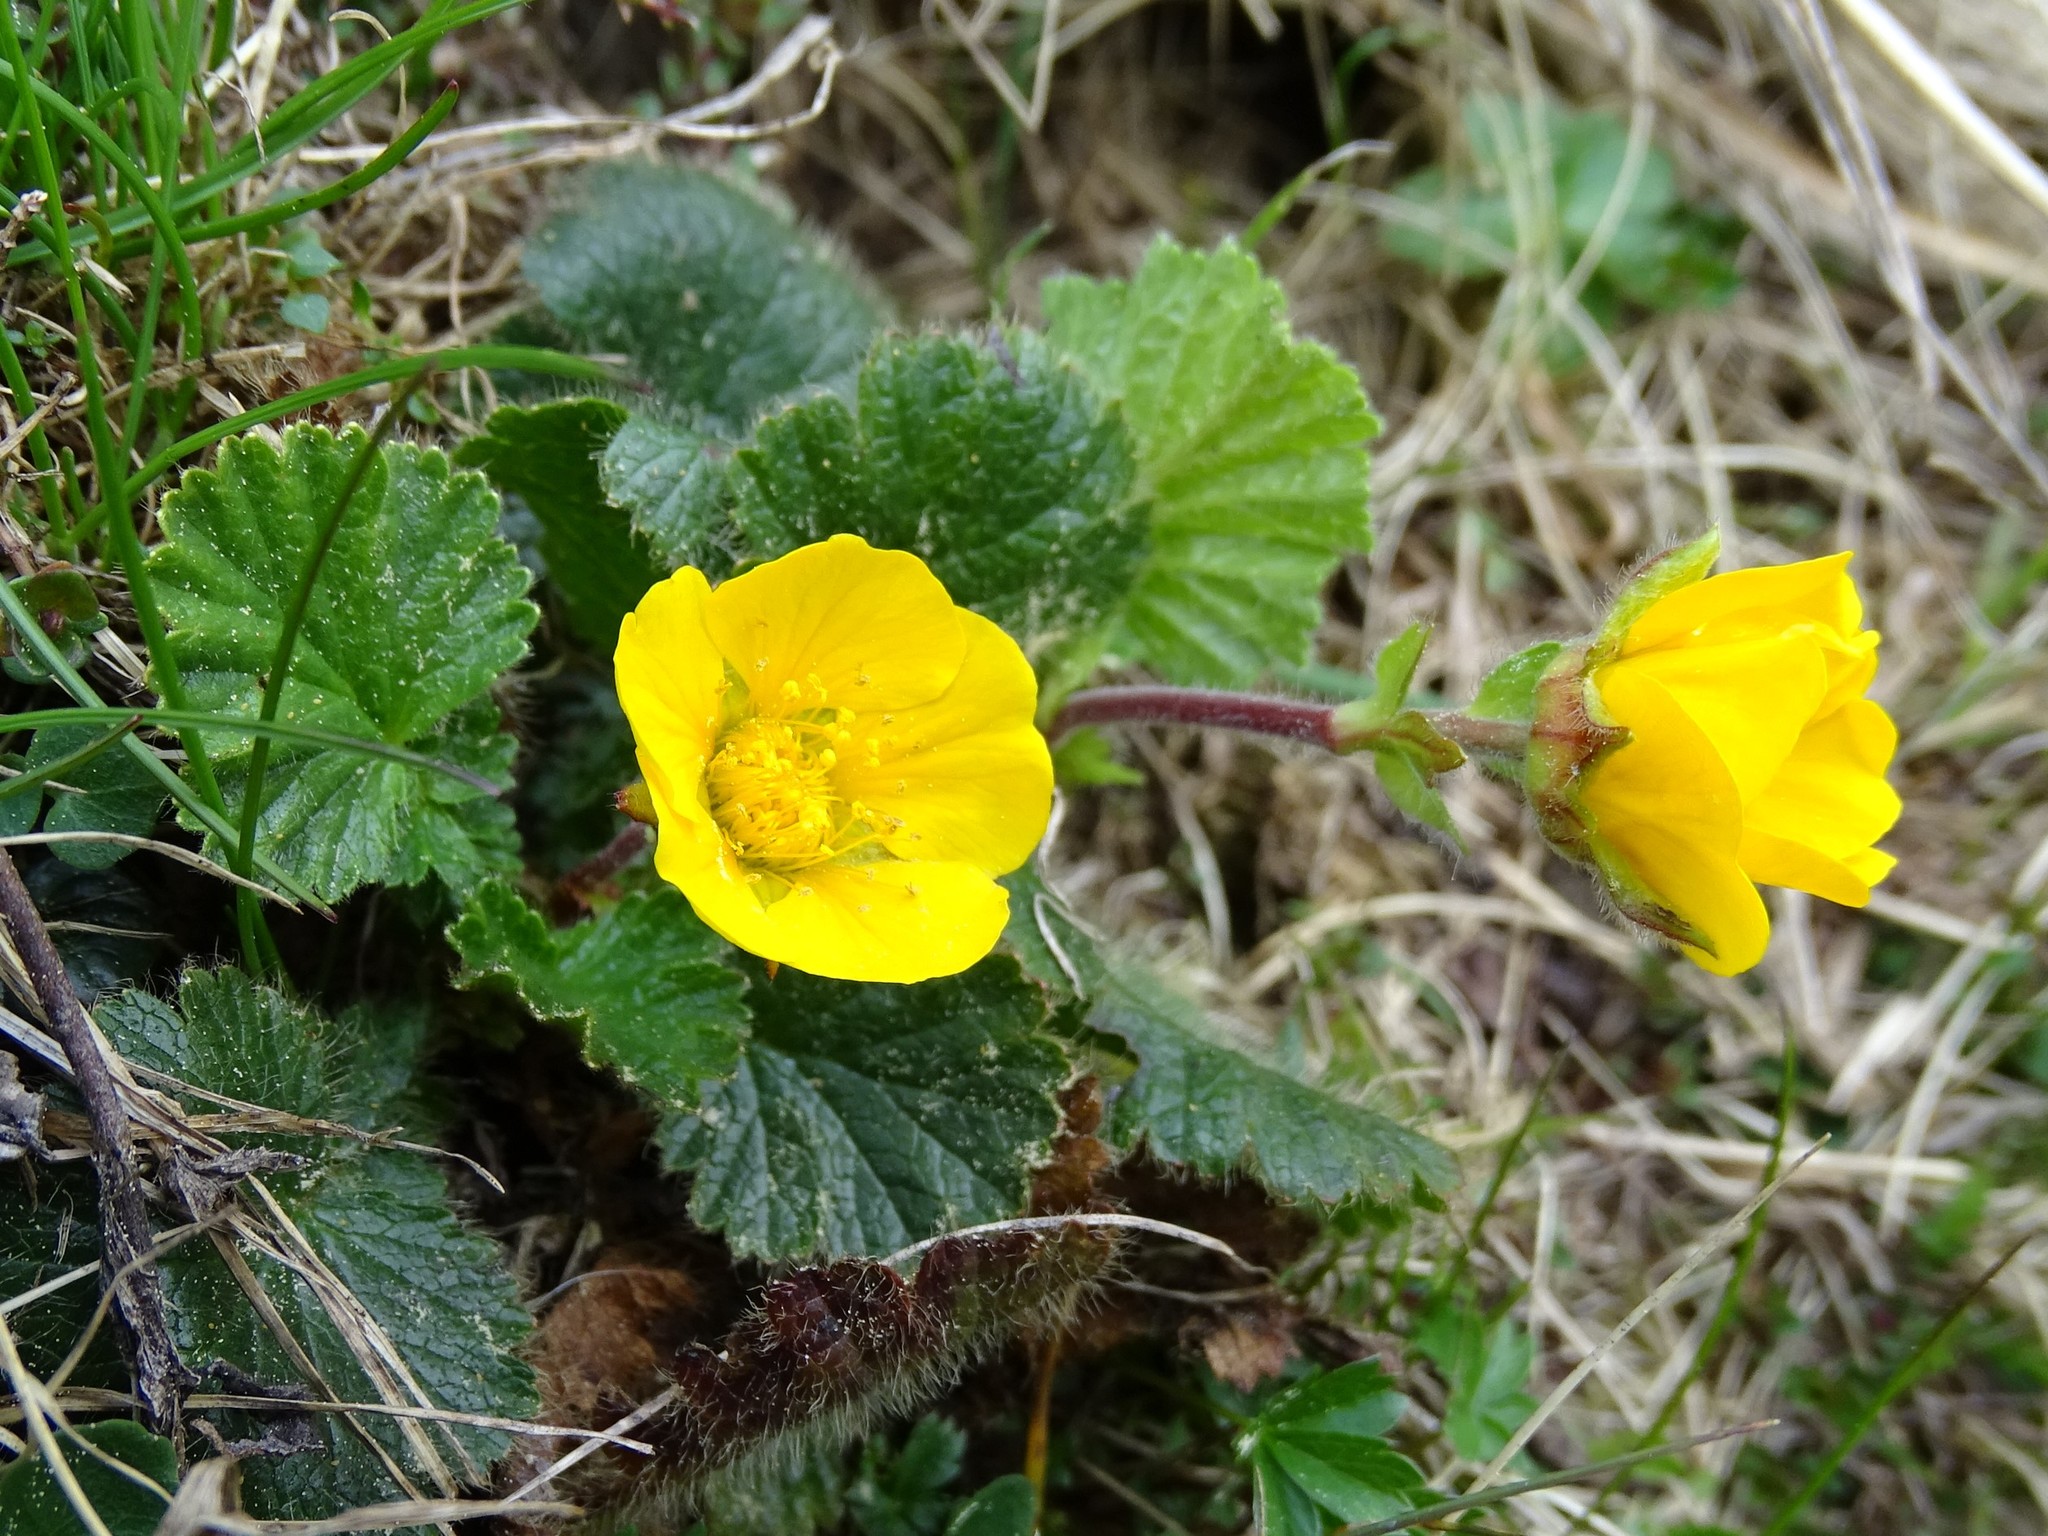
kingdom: Plantae
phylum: Tracheophyta
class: Magnoliopsida
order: Rosales
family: Rosaceae
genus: Geum
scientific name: Geum montanum
